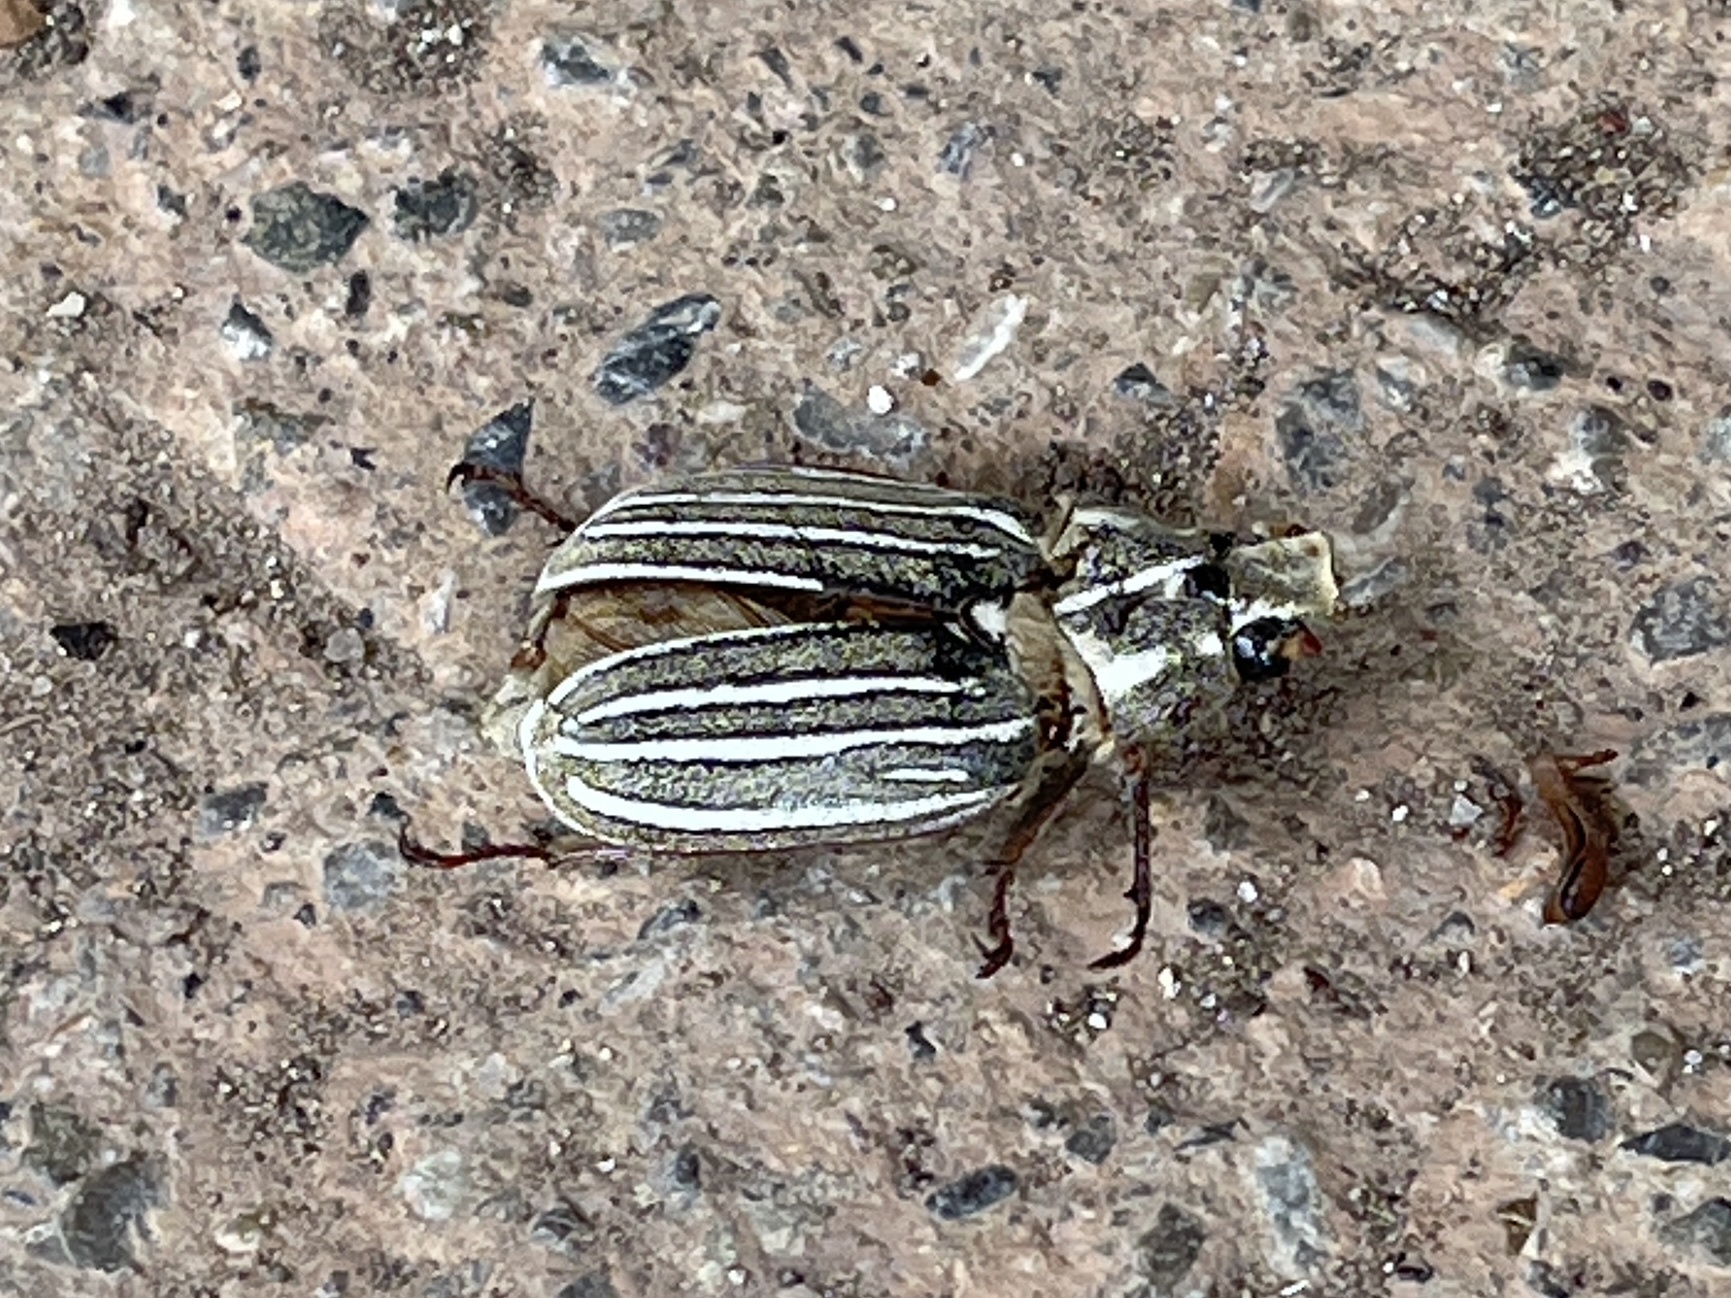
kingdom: Animalia
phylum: Arthropoda
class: Insecta
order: Coleoptera
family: Scarabaeidae
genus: Polyphylla
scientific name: Polyphylla decemlineata
